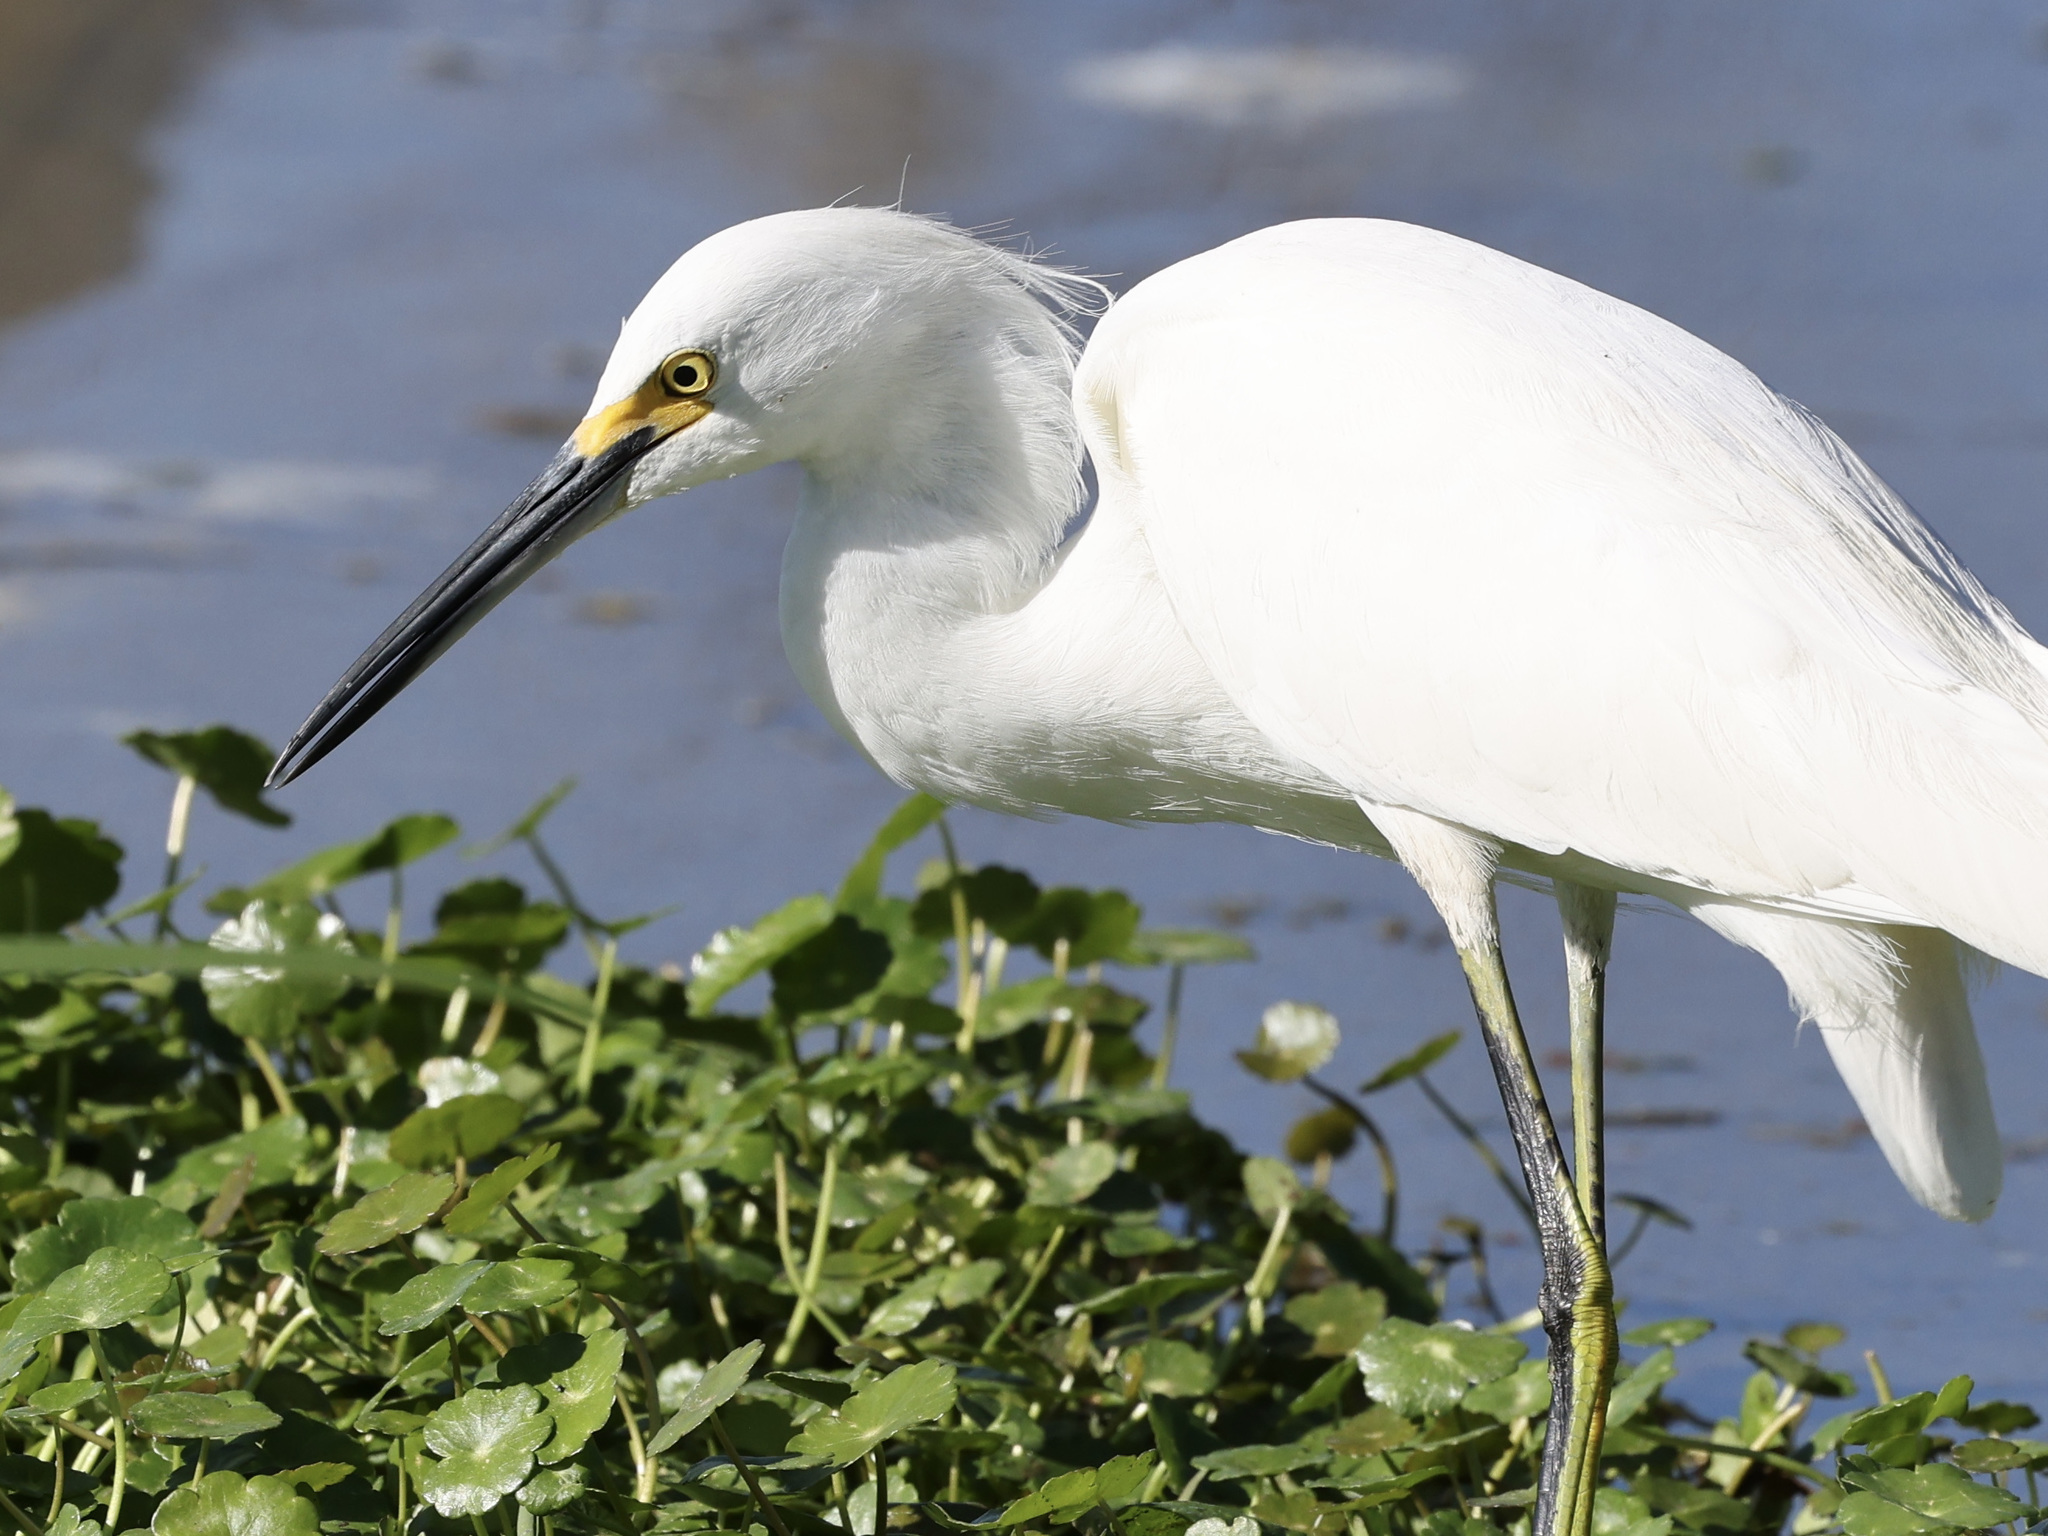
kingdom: Animalia
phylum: Chordata
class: Aves
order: Pelecaniformes
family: Ardeidae
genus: Egretta
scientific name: Egretta thula
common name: Snowy egret
